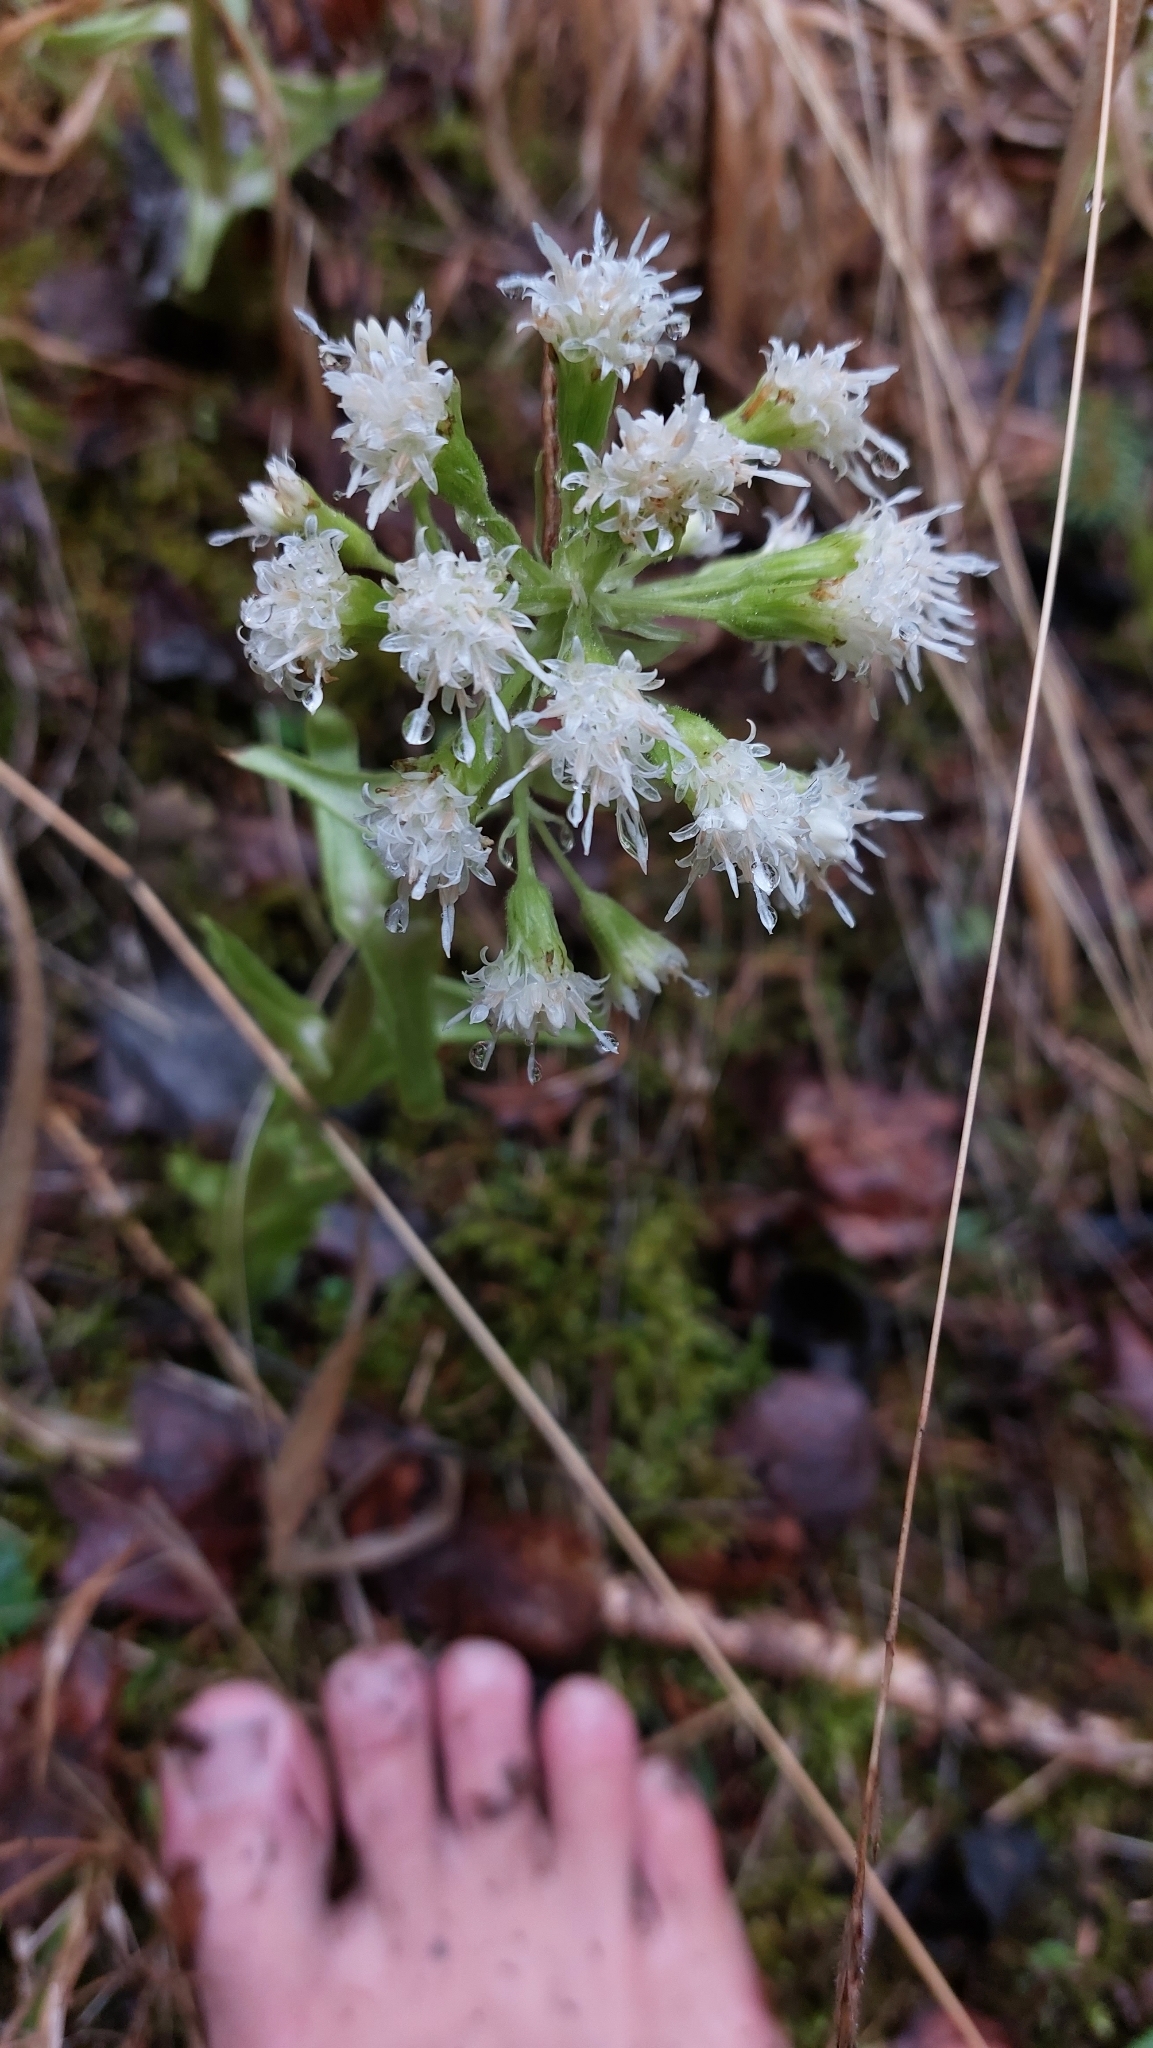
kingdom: Plantae
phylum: Tracheophyta
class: Magnoliopsida
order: Asterales
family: Asteraceae
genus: Petasites
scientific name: Petasites albus
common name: White butterbur
